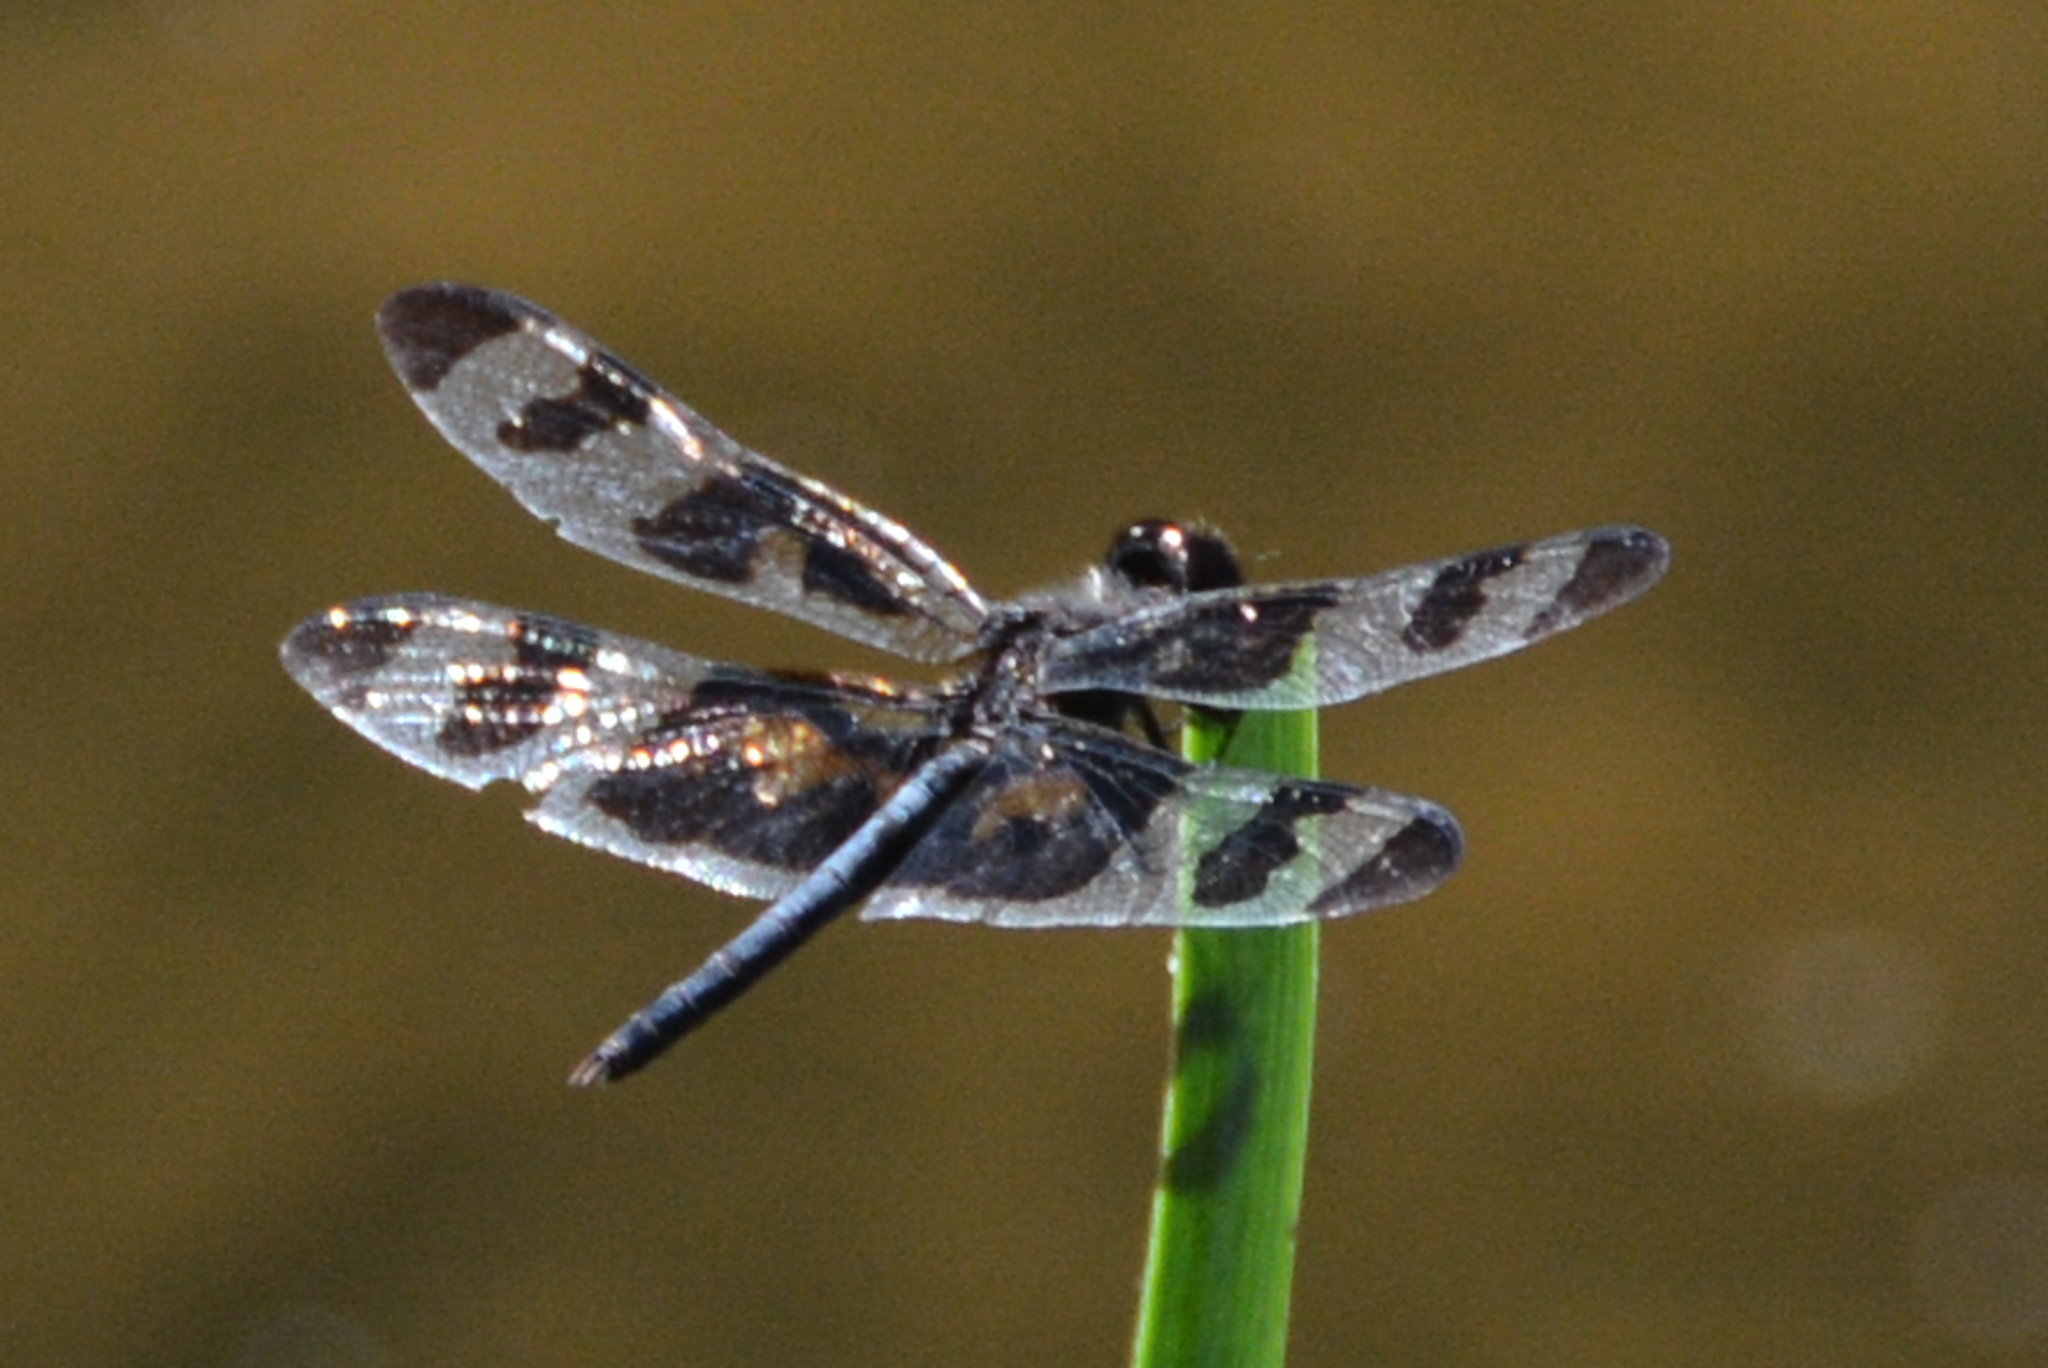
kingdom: Animalia
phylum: Arthropoda
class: Insecta
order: Odonata
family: Libellulidae
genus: Celithemis
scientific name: Celithemis fasciata
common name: Banded pennant
